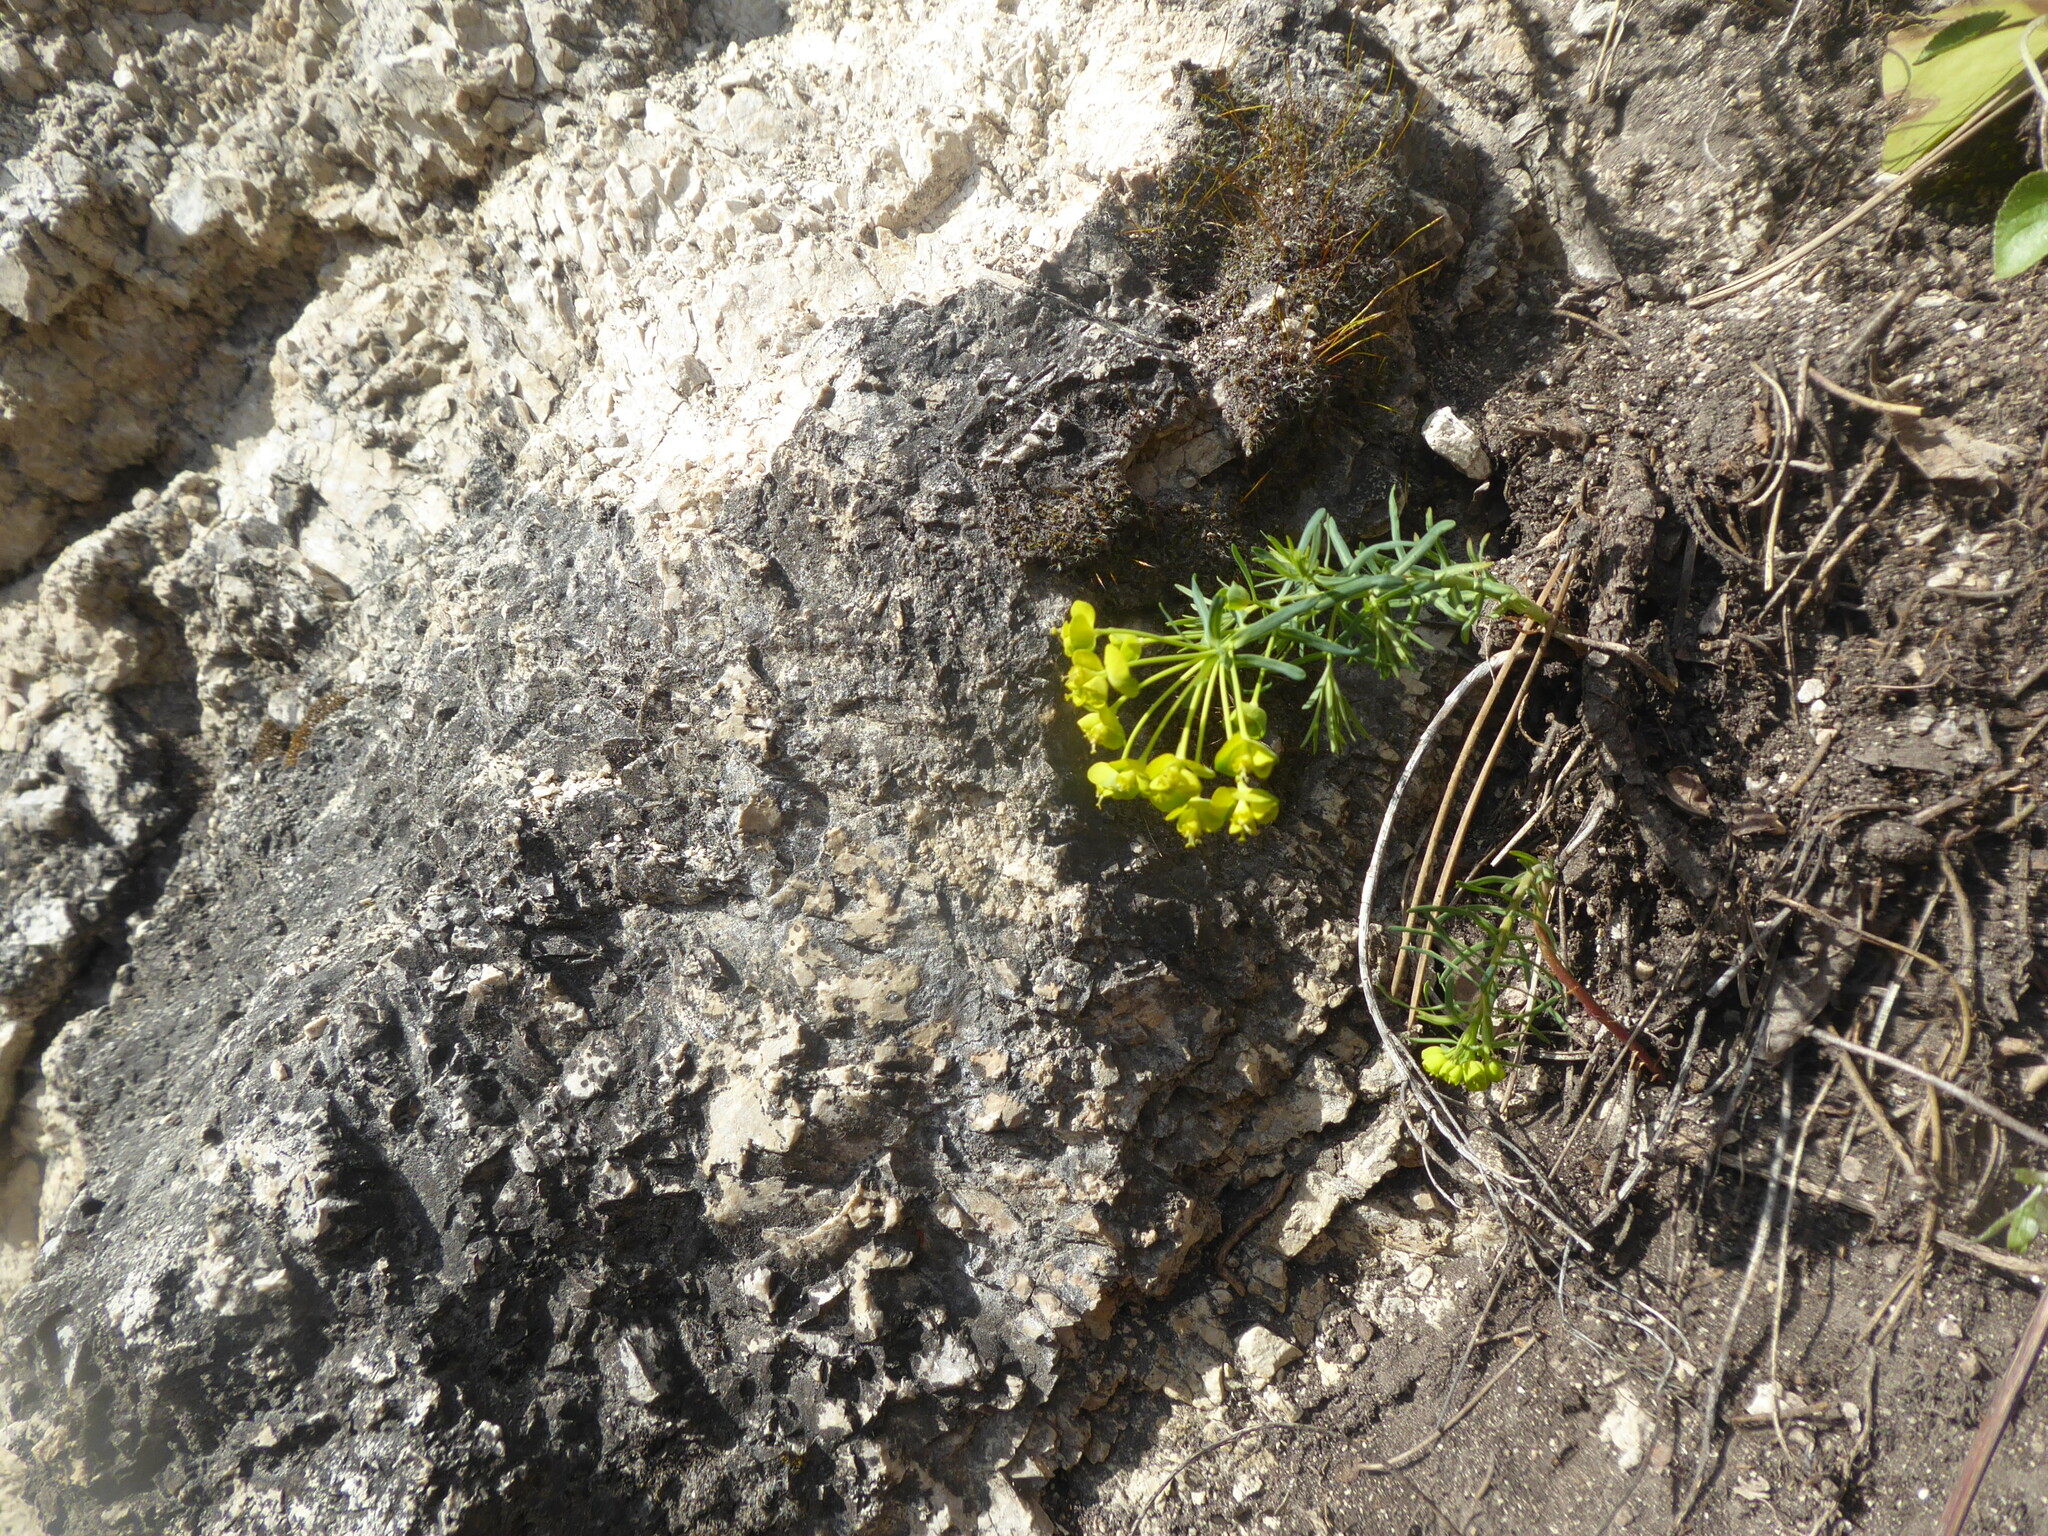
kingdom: Plantae
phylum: Tracheophyta
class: Magnoliopsida
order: Malpighiales
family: Euphorbiaceae
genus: Euphorbia
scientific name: Euphorbia cyparissias
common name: Cypress spurge
